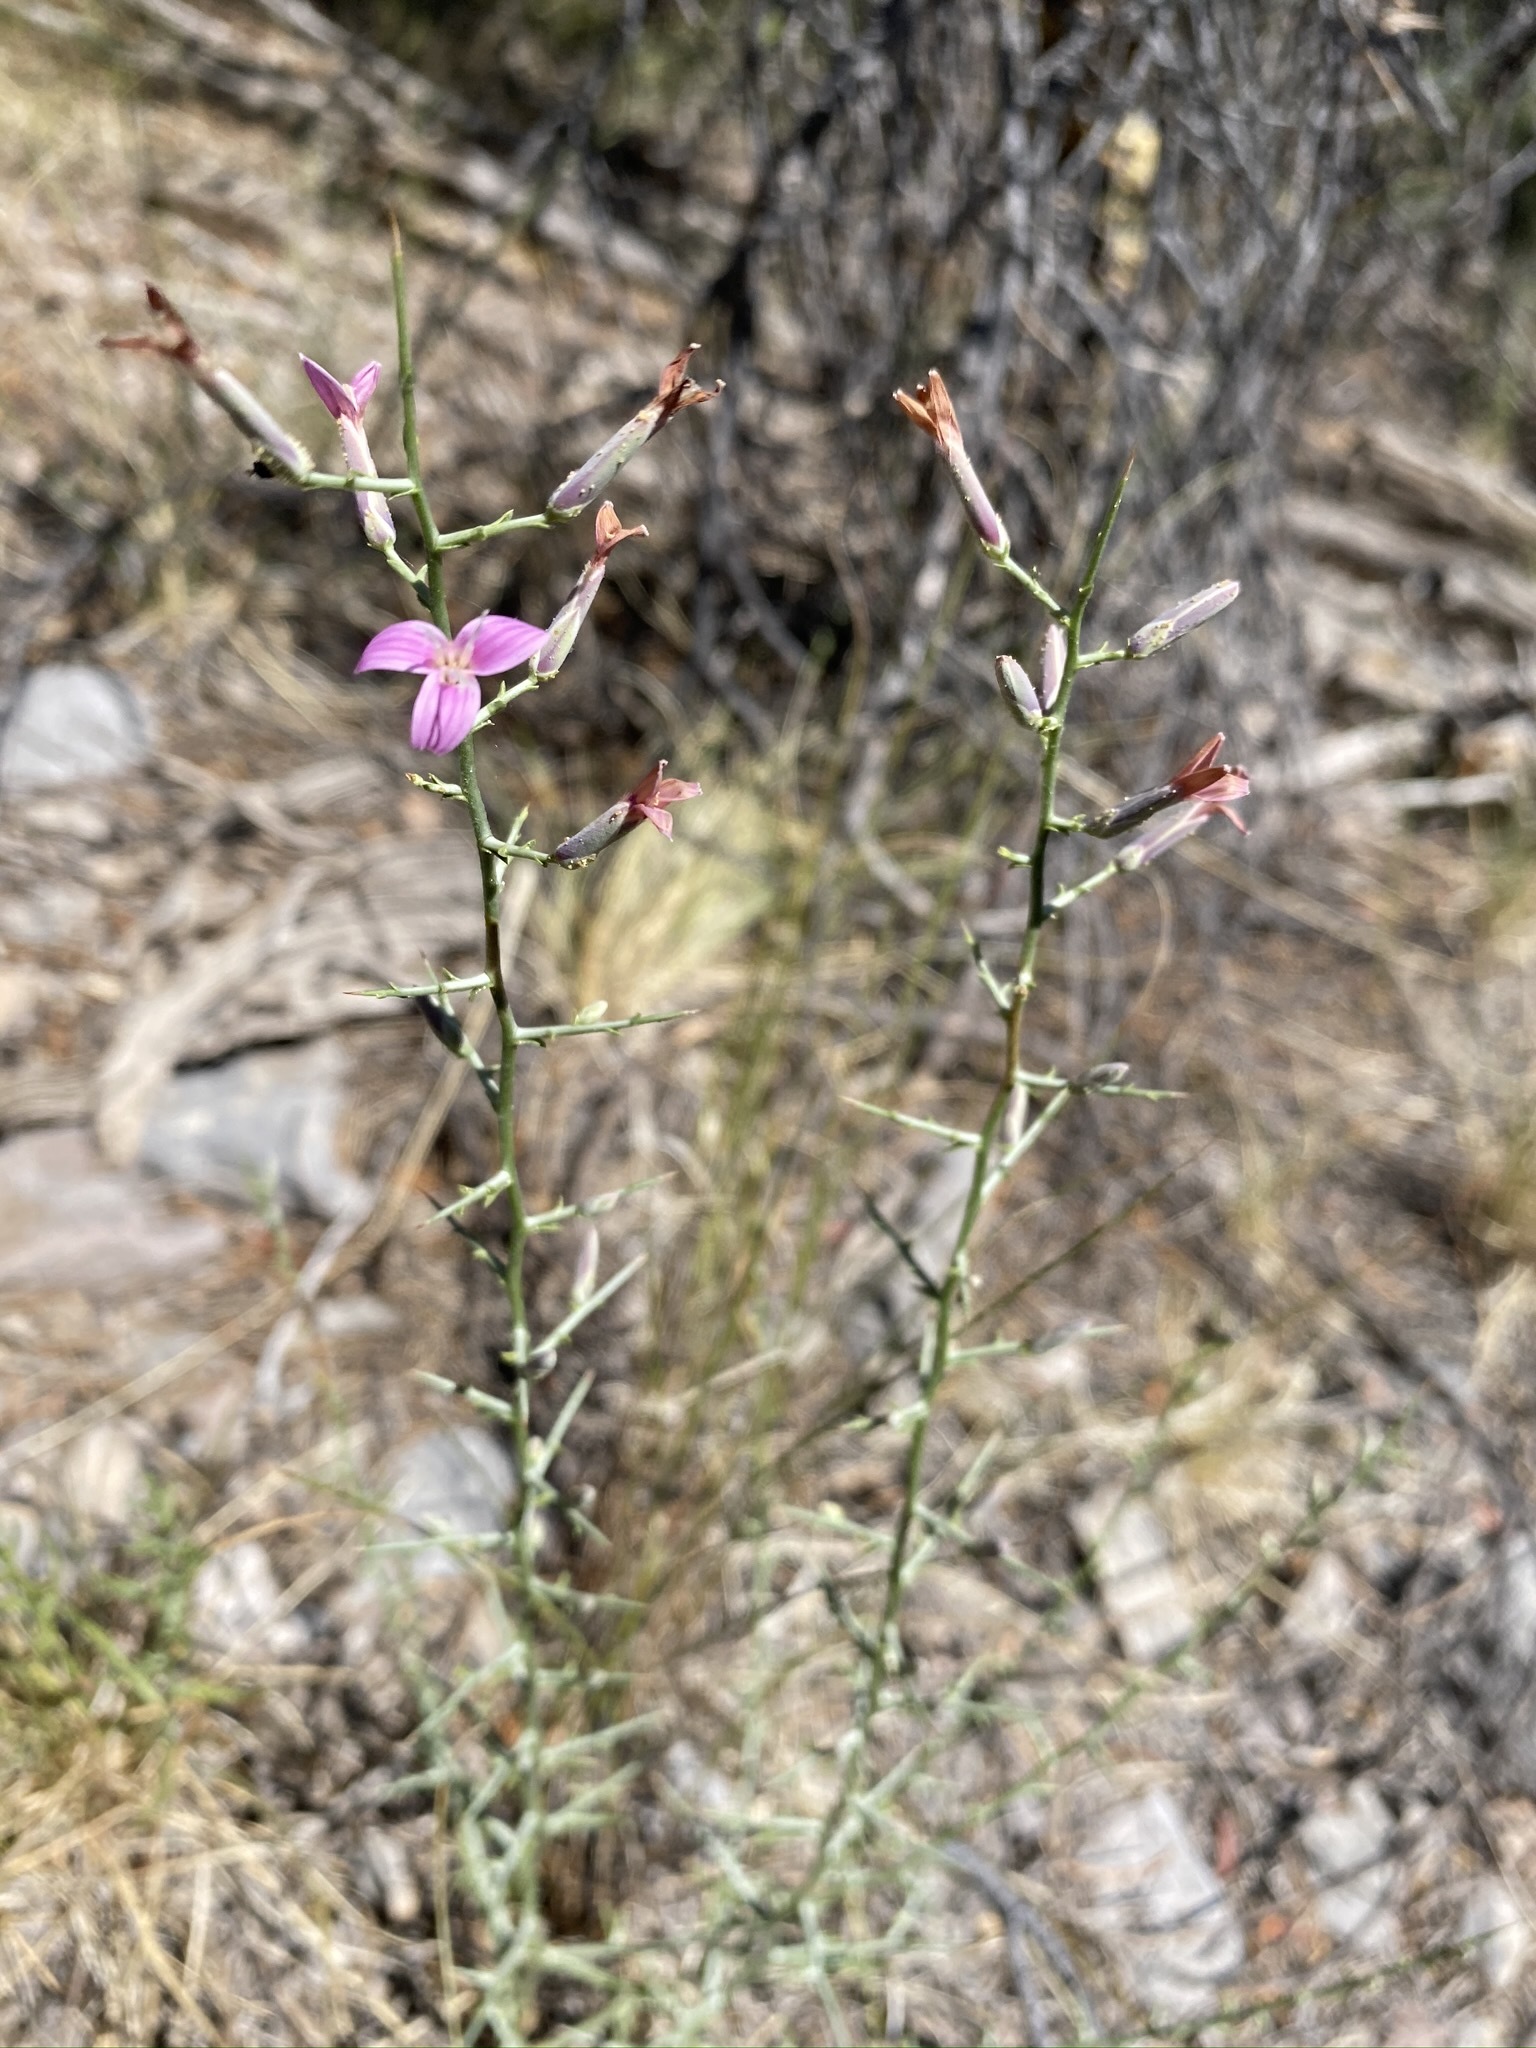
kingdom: Plantae
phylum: Tracheophyta
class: Magnoliopsida
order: Asterales
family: Asteraceae
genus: Pleiacanthus
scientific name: Pleiacanthus spinosus
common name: Thorny skeleton-weed
